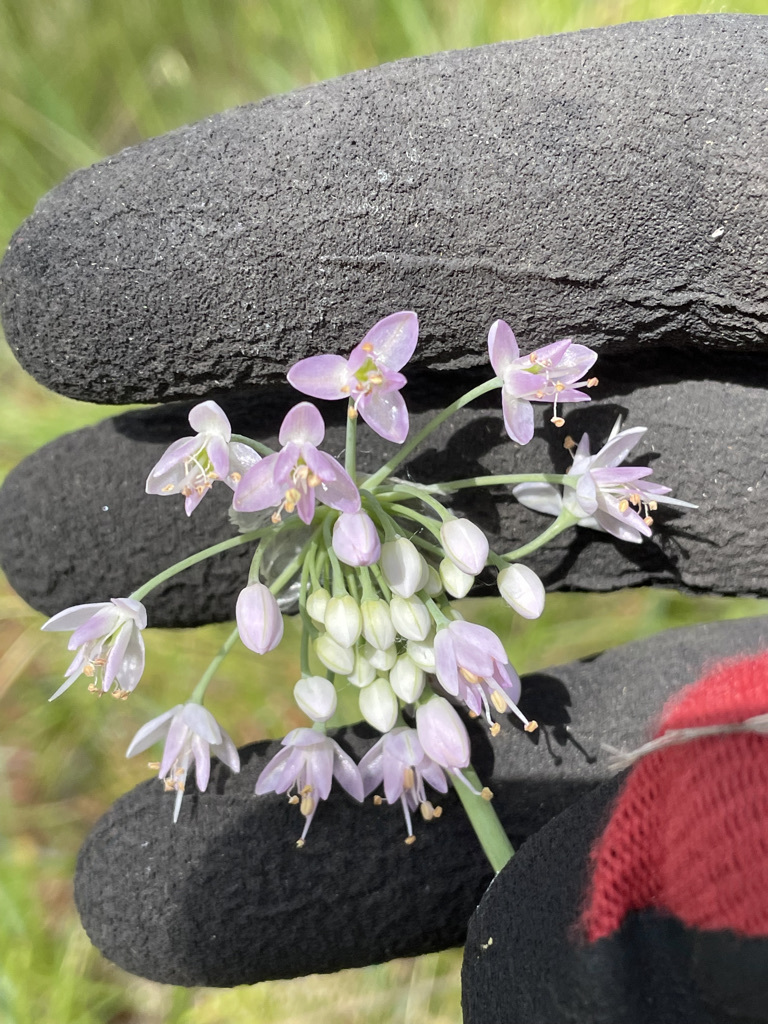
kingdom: Plantae
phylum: Tracheophyta
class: Liliopsida
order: Asparagales
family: Amaryllidaceae
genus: Allium
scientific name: Allium cernuum
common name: Nodding onion
